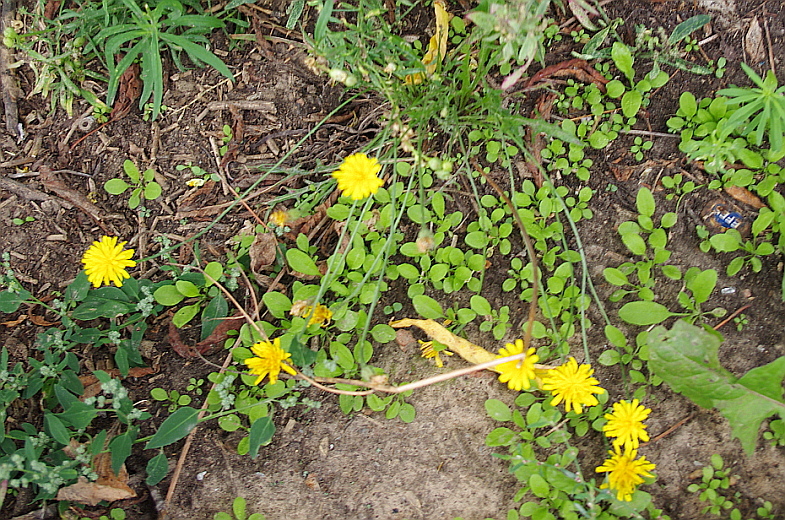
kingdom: Plantae
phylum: Tracheophyta
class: Magnoliopsida
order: Asterales
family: Asteraceae
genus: Scorzoneroides
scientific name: Scorzoneroides autumnalis
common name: Autumn hawkbit
